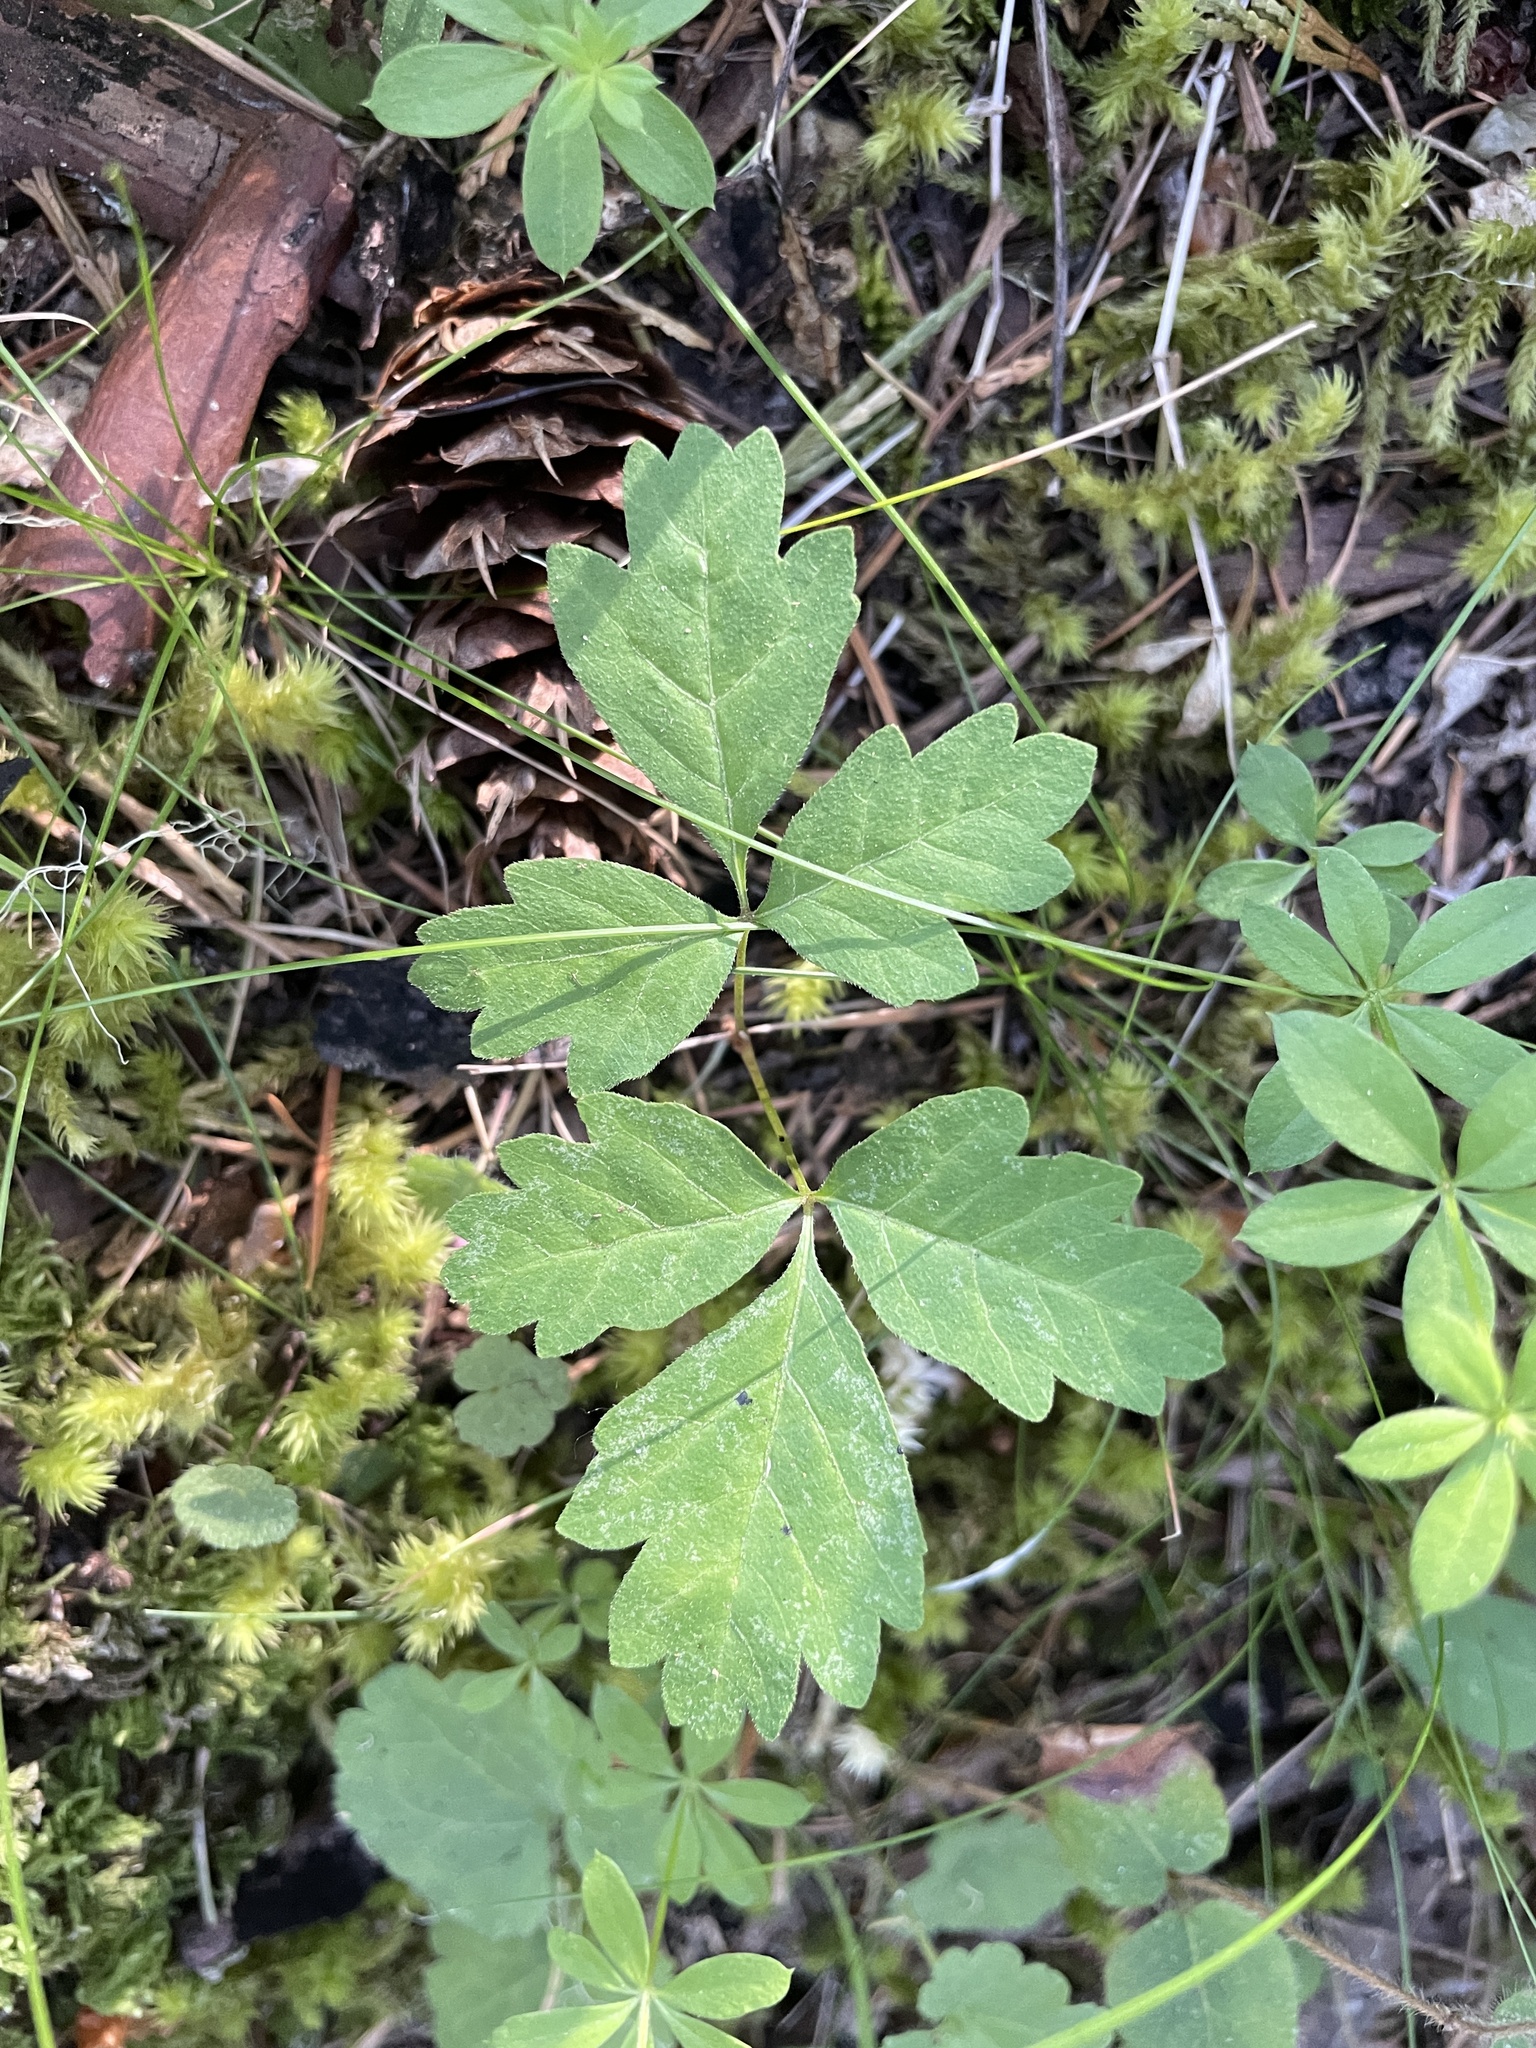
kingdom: Plantae
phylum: Tracheophyta
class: Magnoliopsida
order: Sapindales
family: Anacardiaceae
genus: Toxicodendron
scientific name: Toxicodendron diversilobum
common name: Pacific poison-oak
